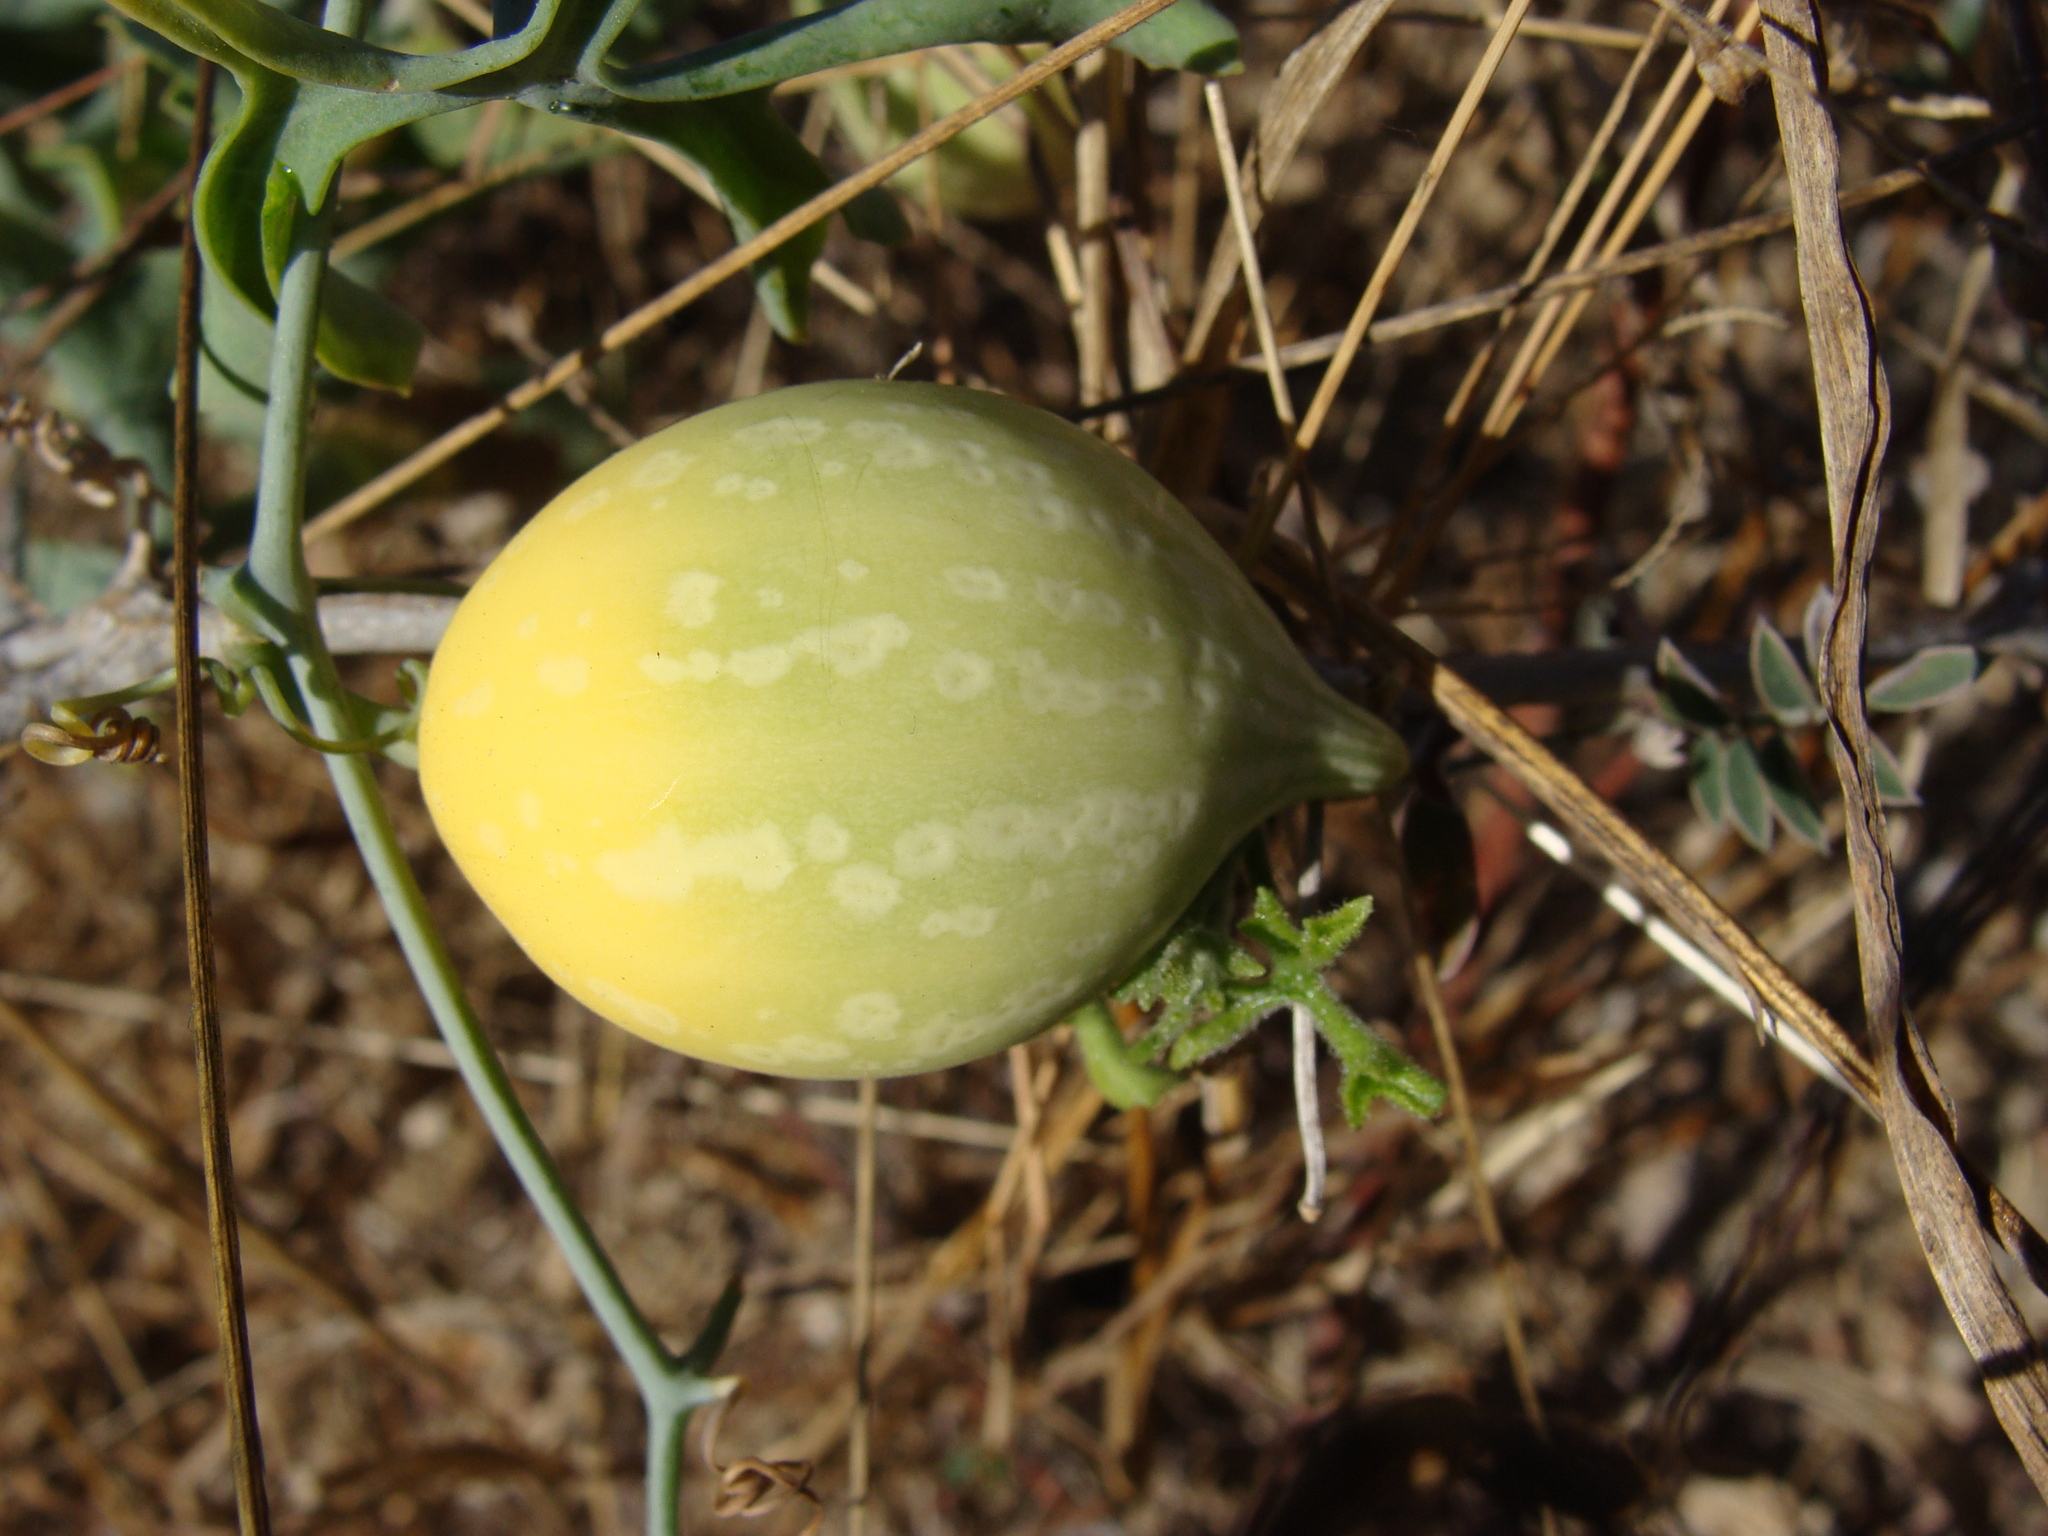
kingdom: Plantae
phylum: Tracheophyta
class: Magnoliopsida
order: Cucurbitales
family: Cucurbitaceae
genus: Ibervillea
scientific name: Ibervillea sonorae
